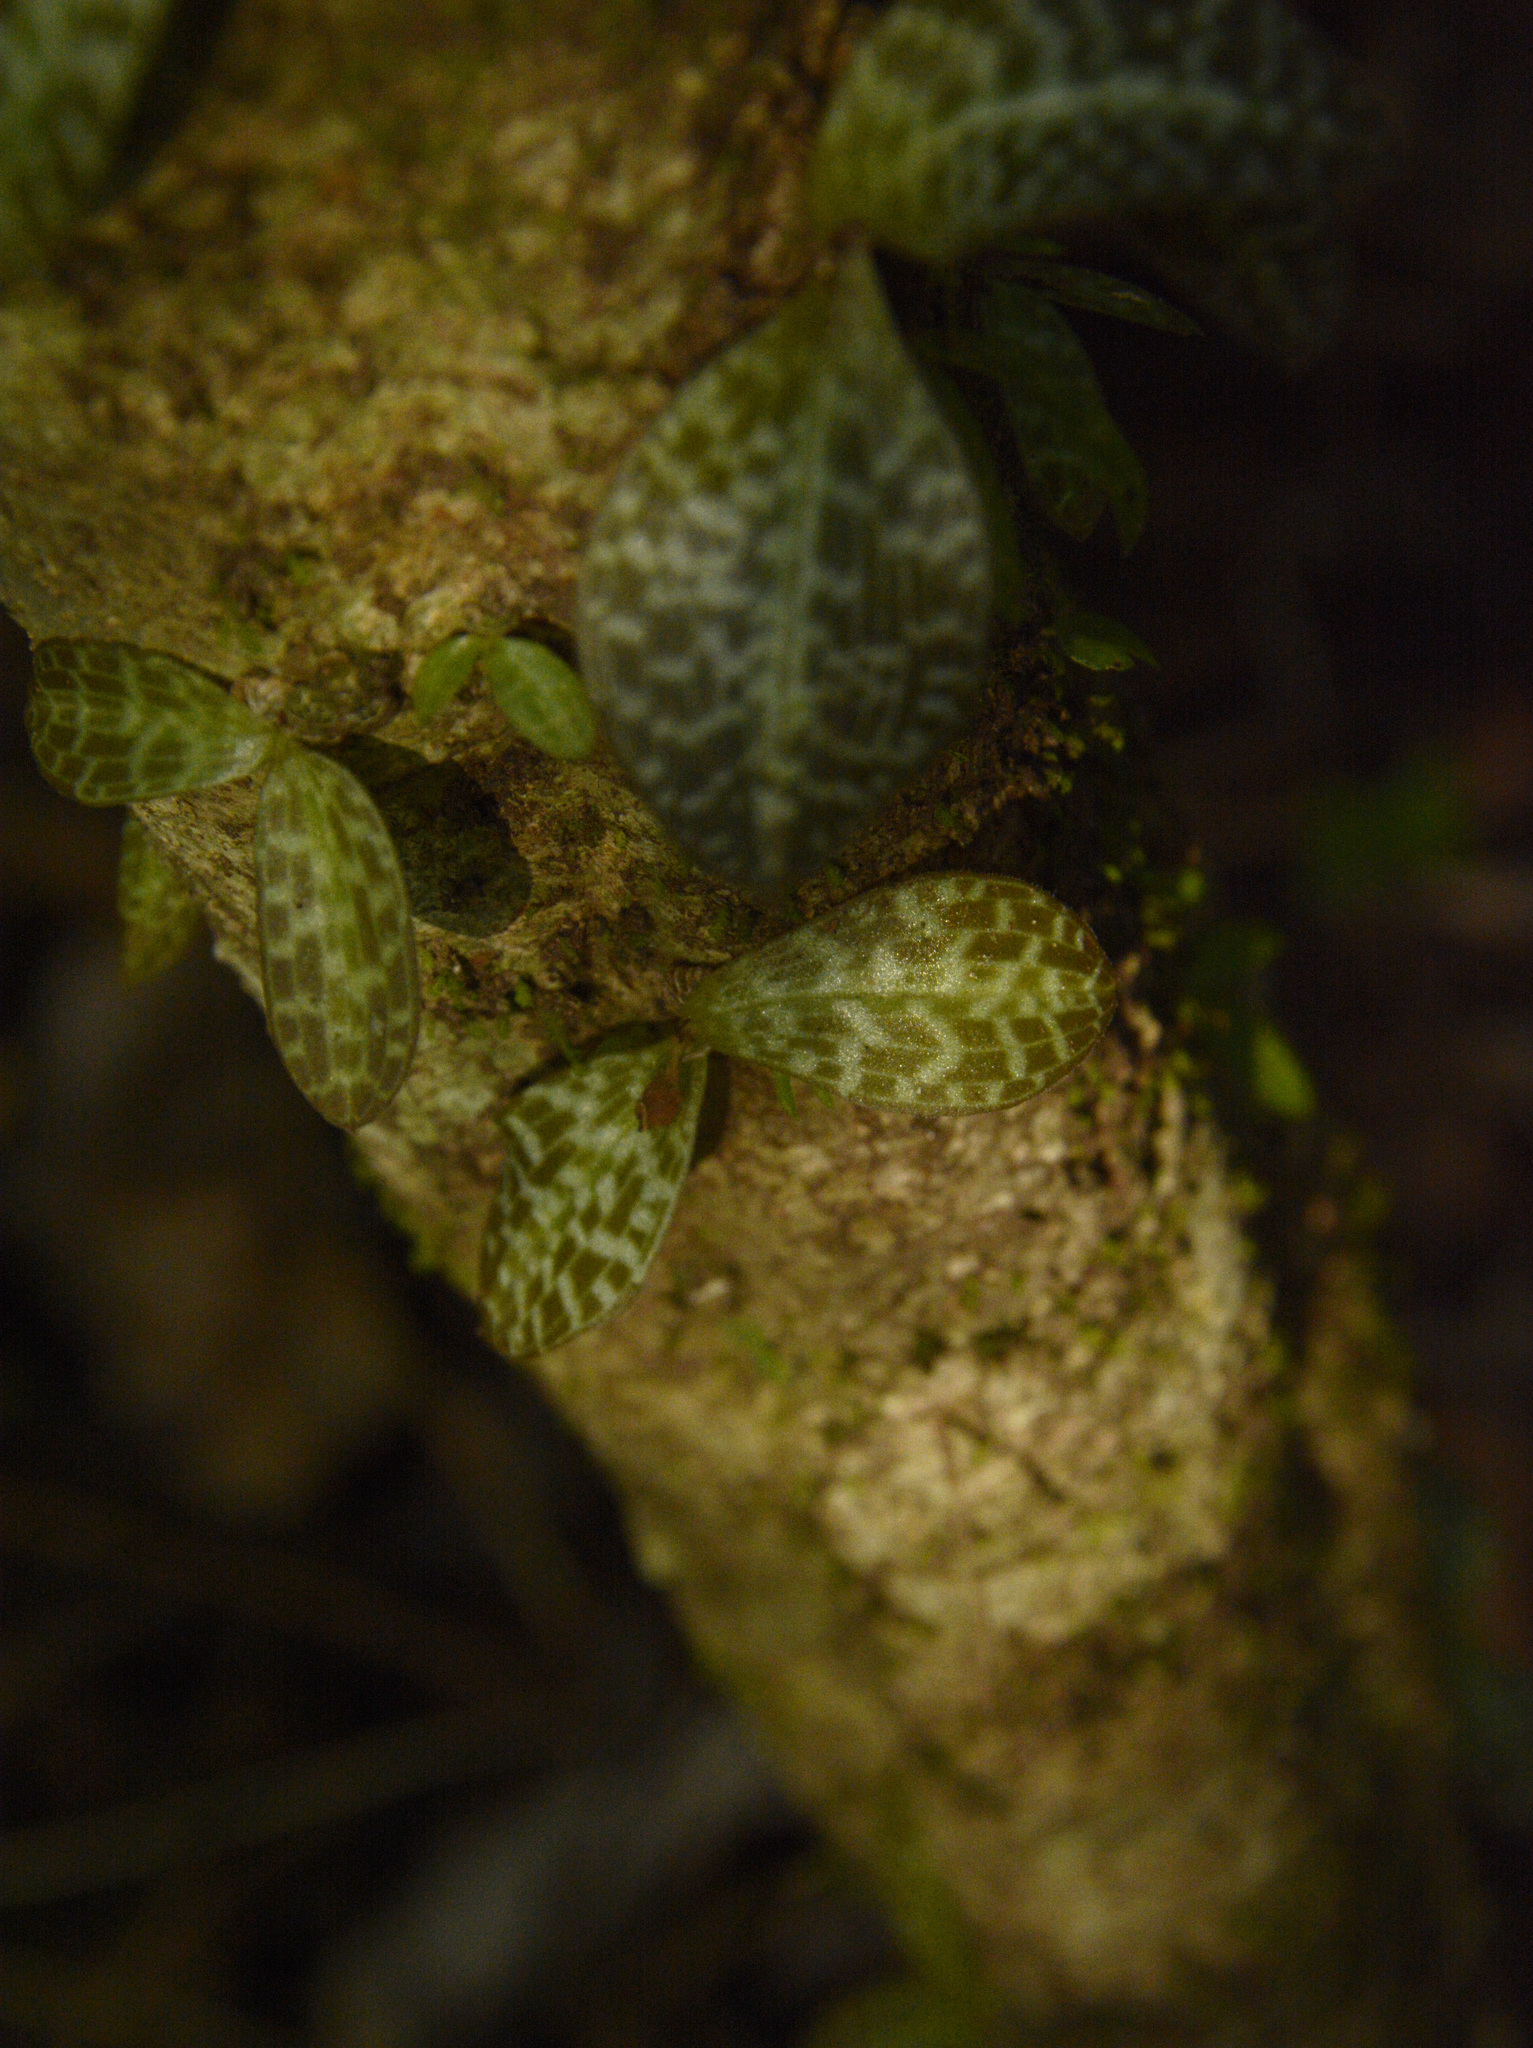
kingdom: Plantae
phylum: Tracheophyta
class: Liliopsida
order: Asparagales
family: Orchidaceae
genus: Porpax
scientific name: Porpax jerdoniana
